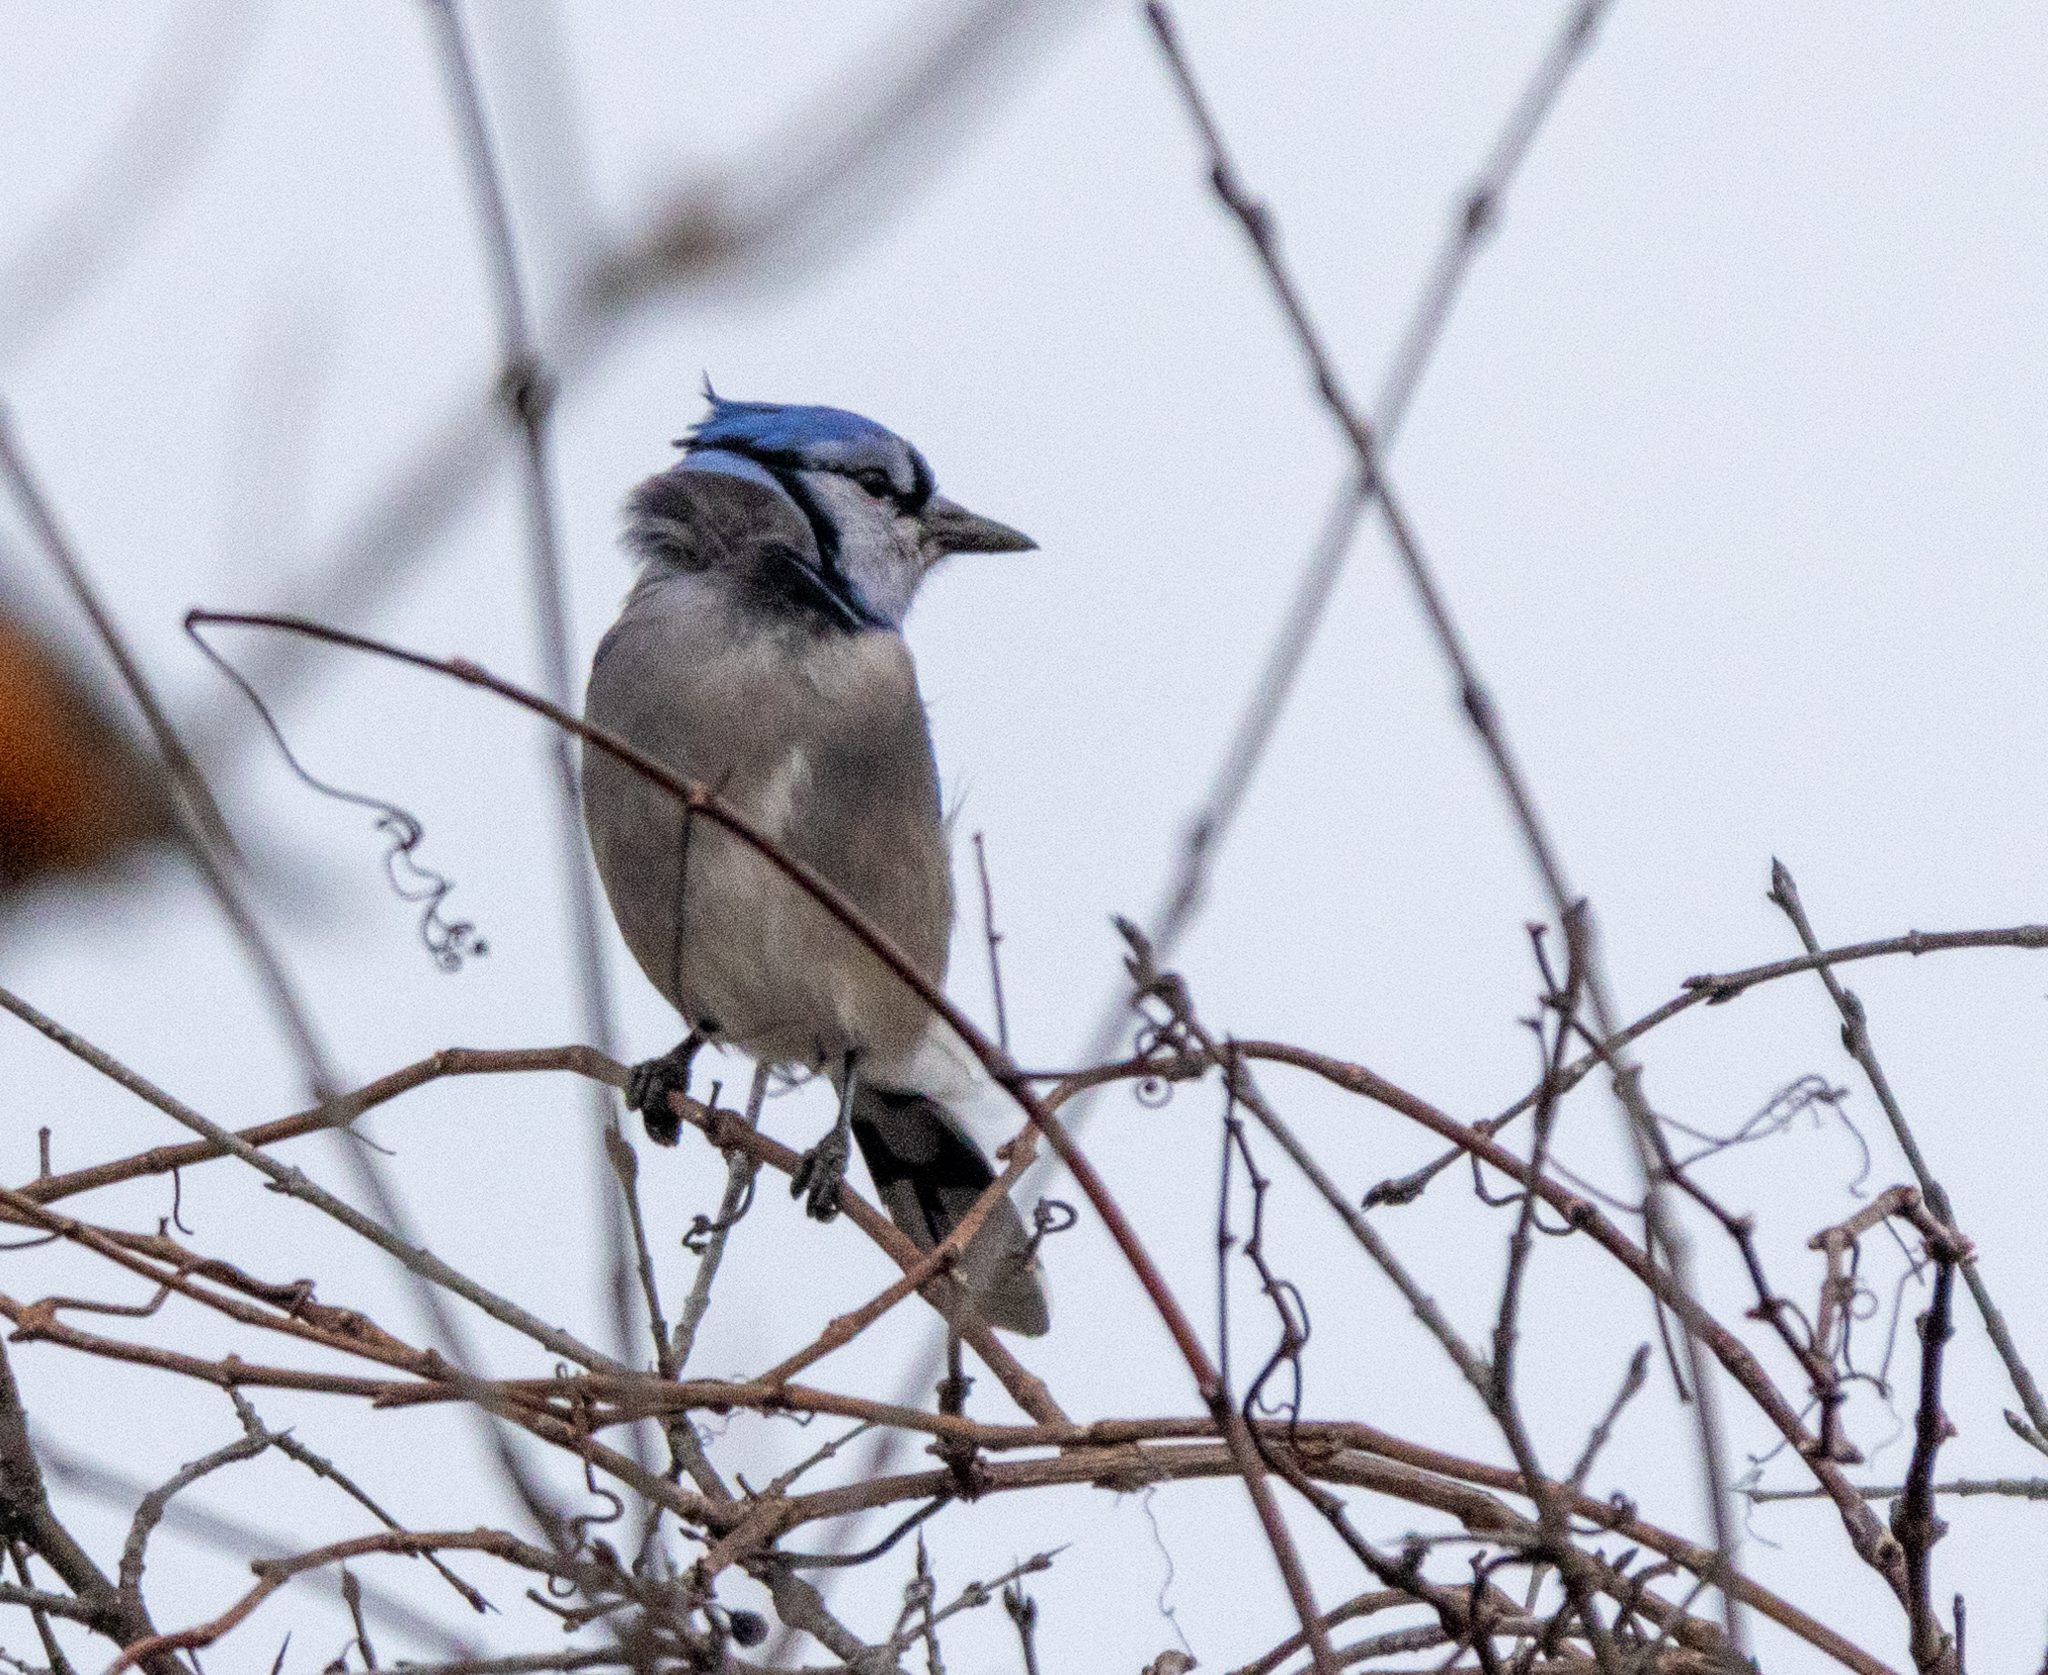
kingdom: Animalia
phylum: Chordata
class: Aves
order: Passeriformes
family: Corvidae
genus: Cyanocitta
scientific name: Cyanocitta cristata
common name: Blue jay
